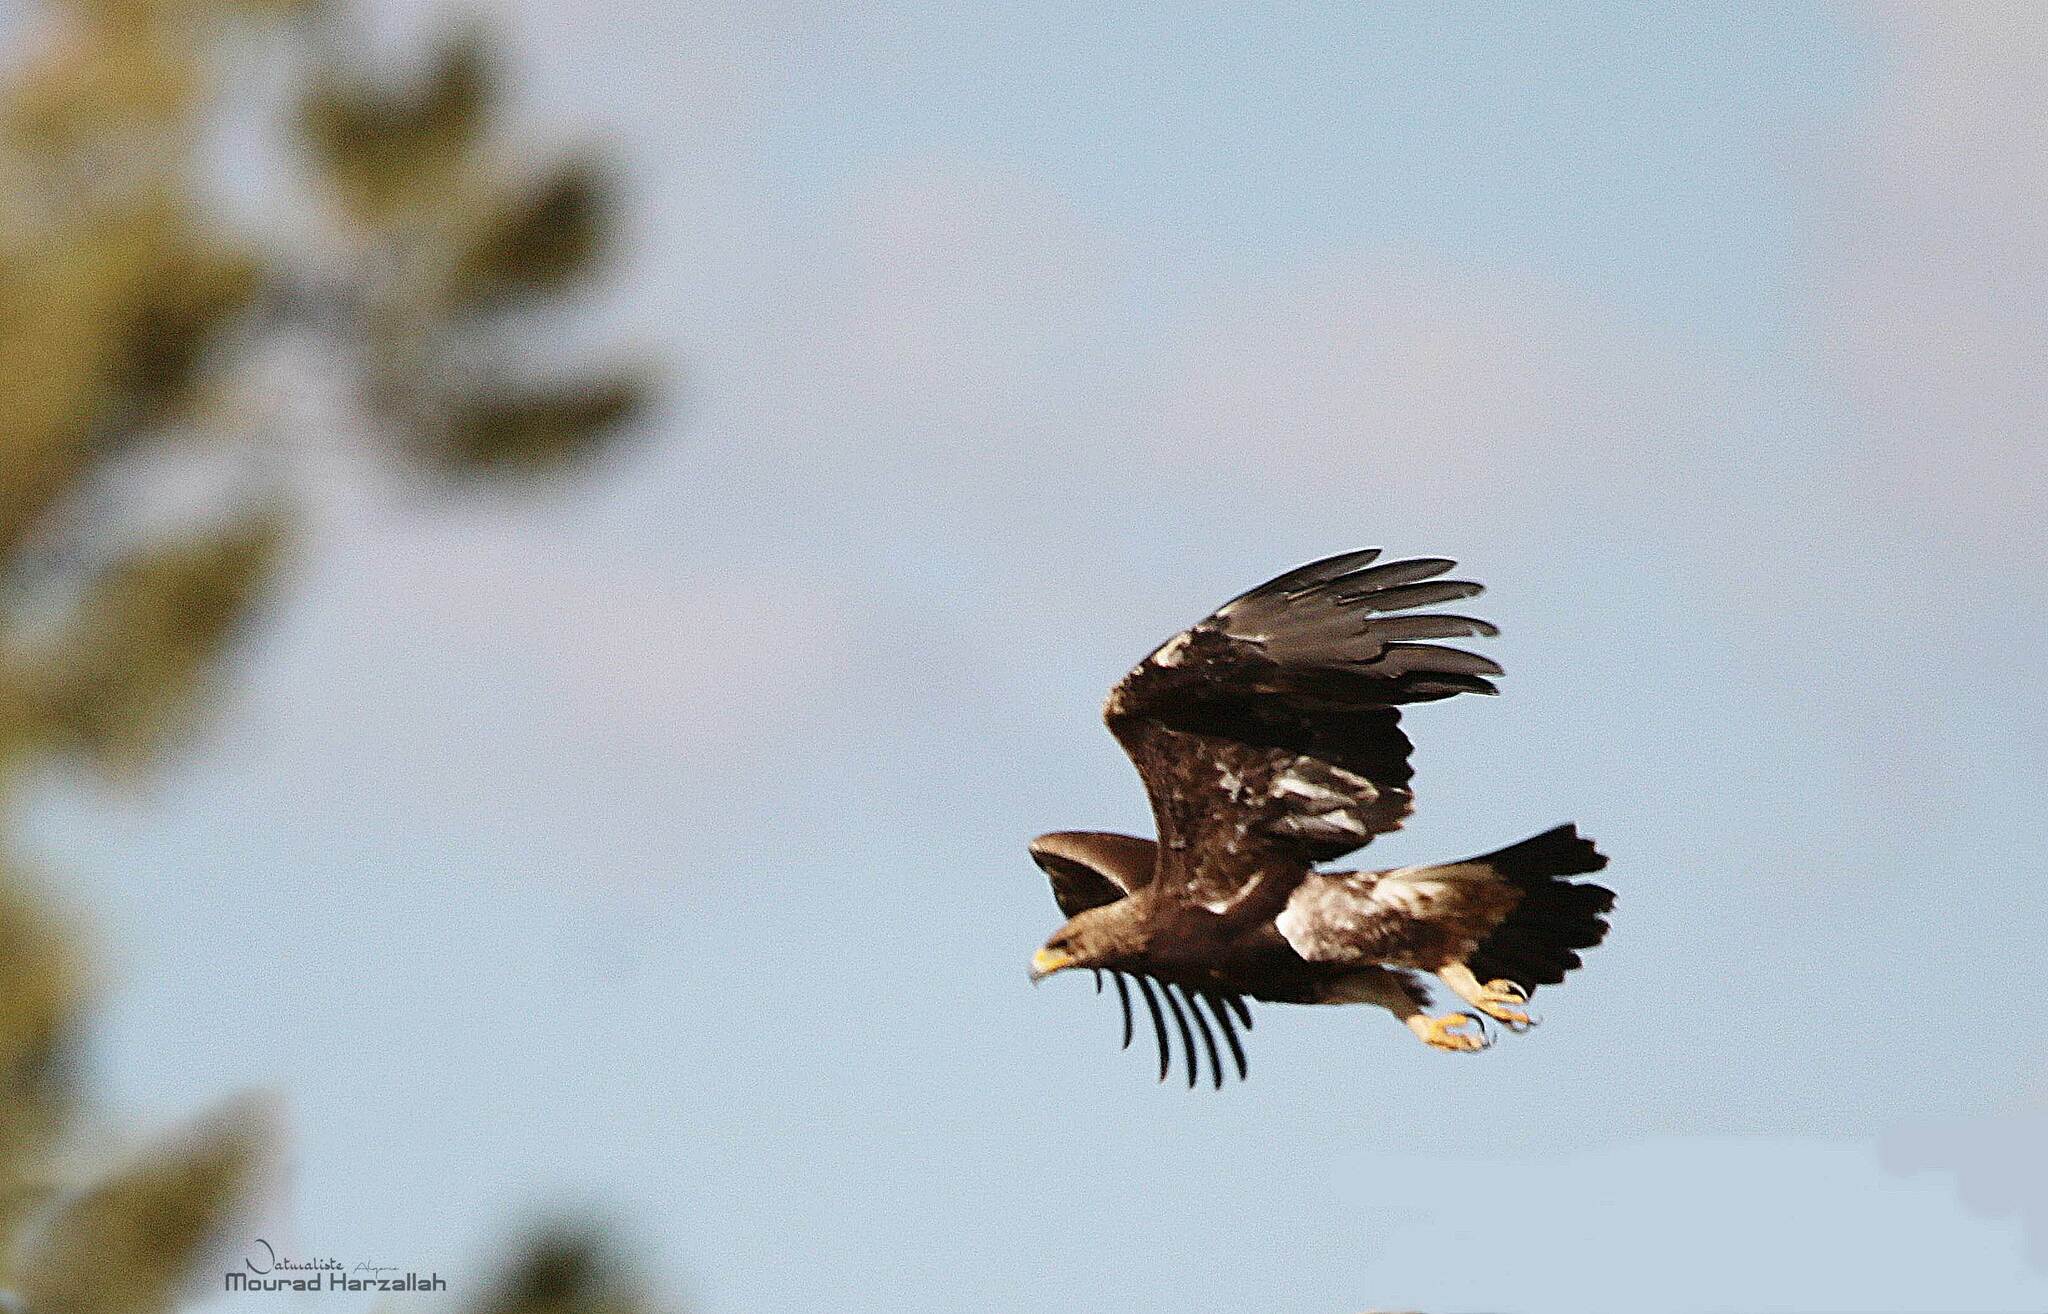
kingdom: Animalia
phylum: Chordata
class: Aves
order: Accipitriformes
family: Accipitridae
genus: Aquila
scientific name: Aquila chrysaetos
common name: Golden eagle
